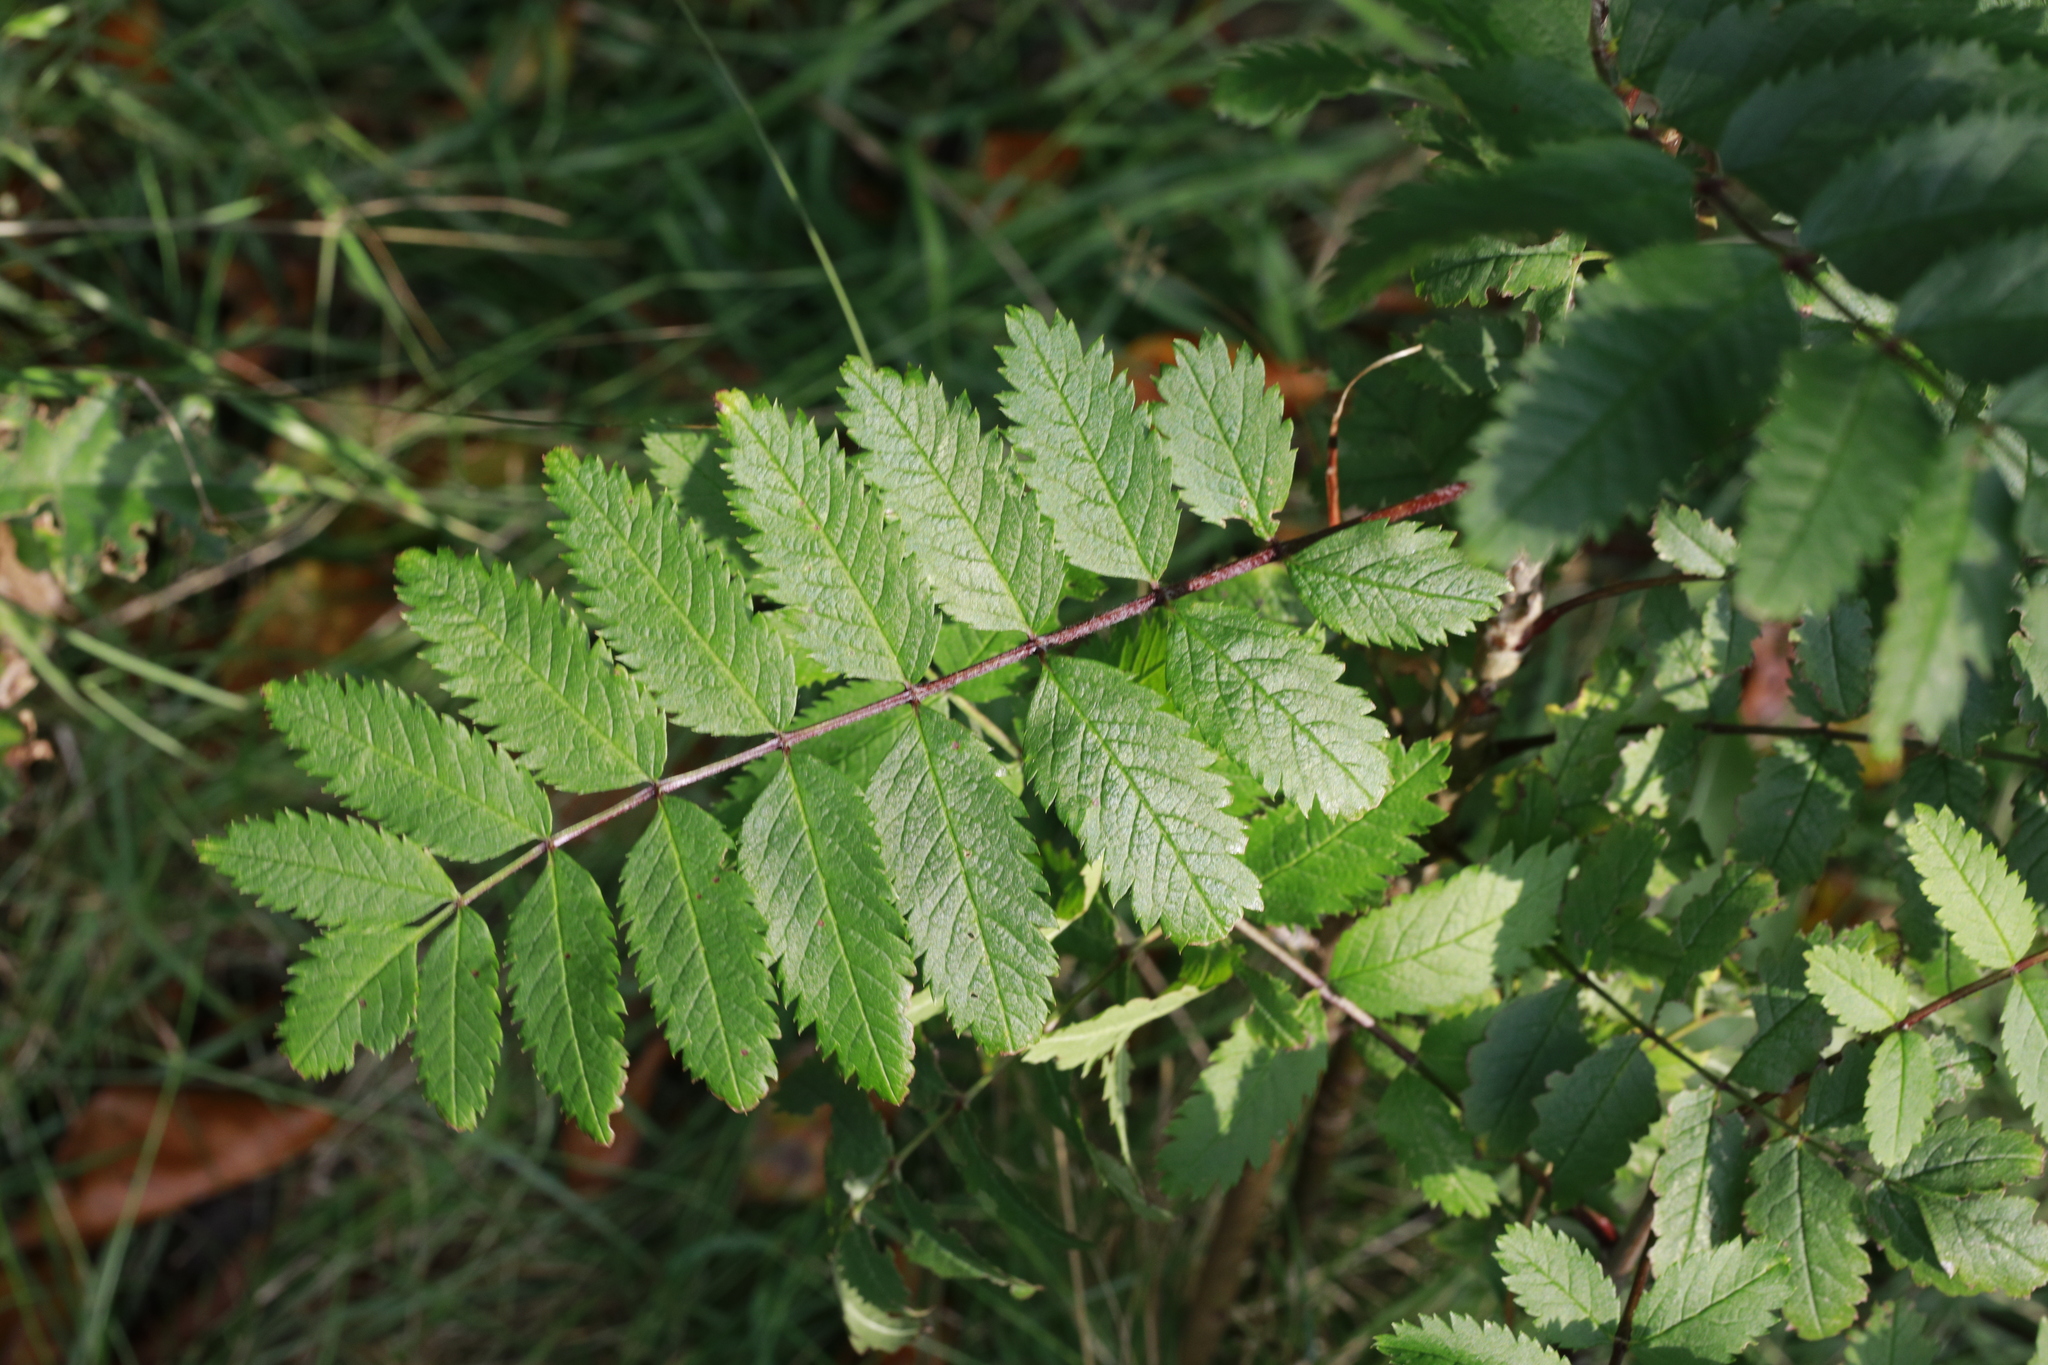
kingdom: Plantae
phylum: Tracheophyta
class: Magnoliopsida
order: Rosales
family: Rosaceae
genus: Sorbus
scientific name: Sorbus aucuparia
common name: Rowan
